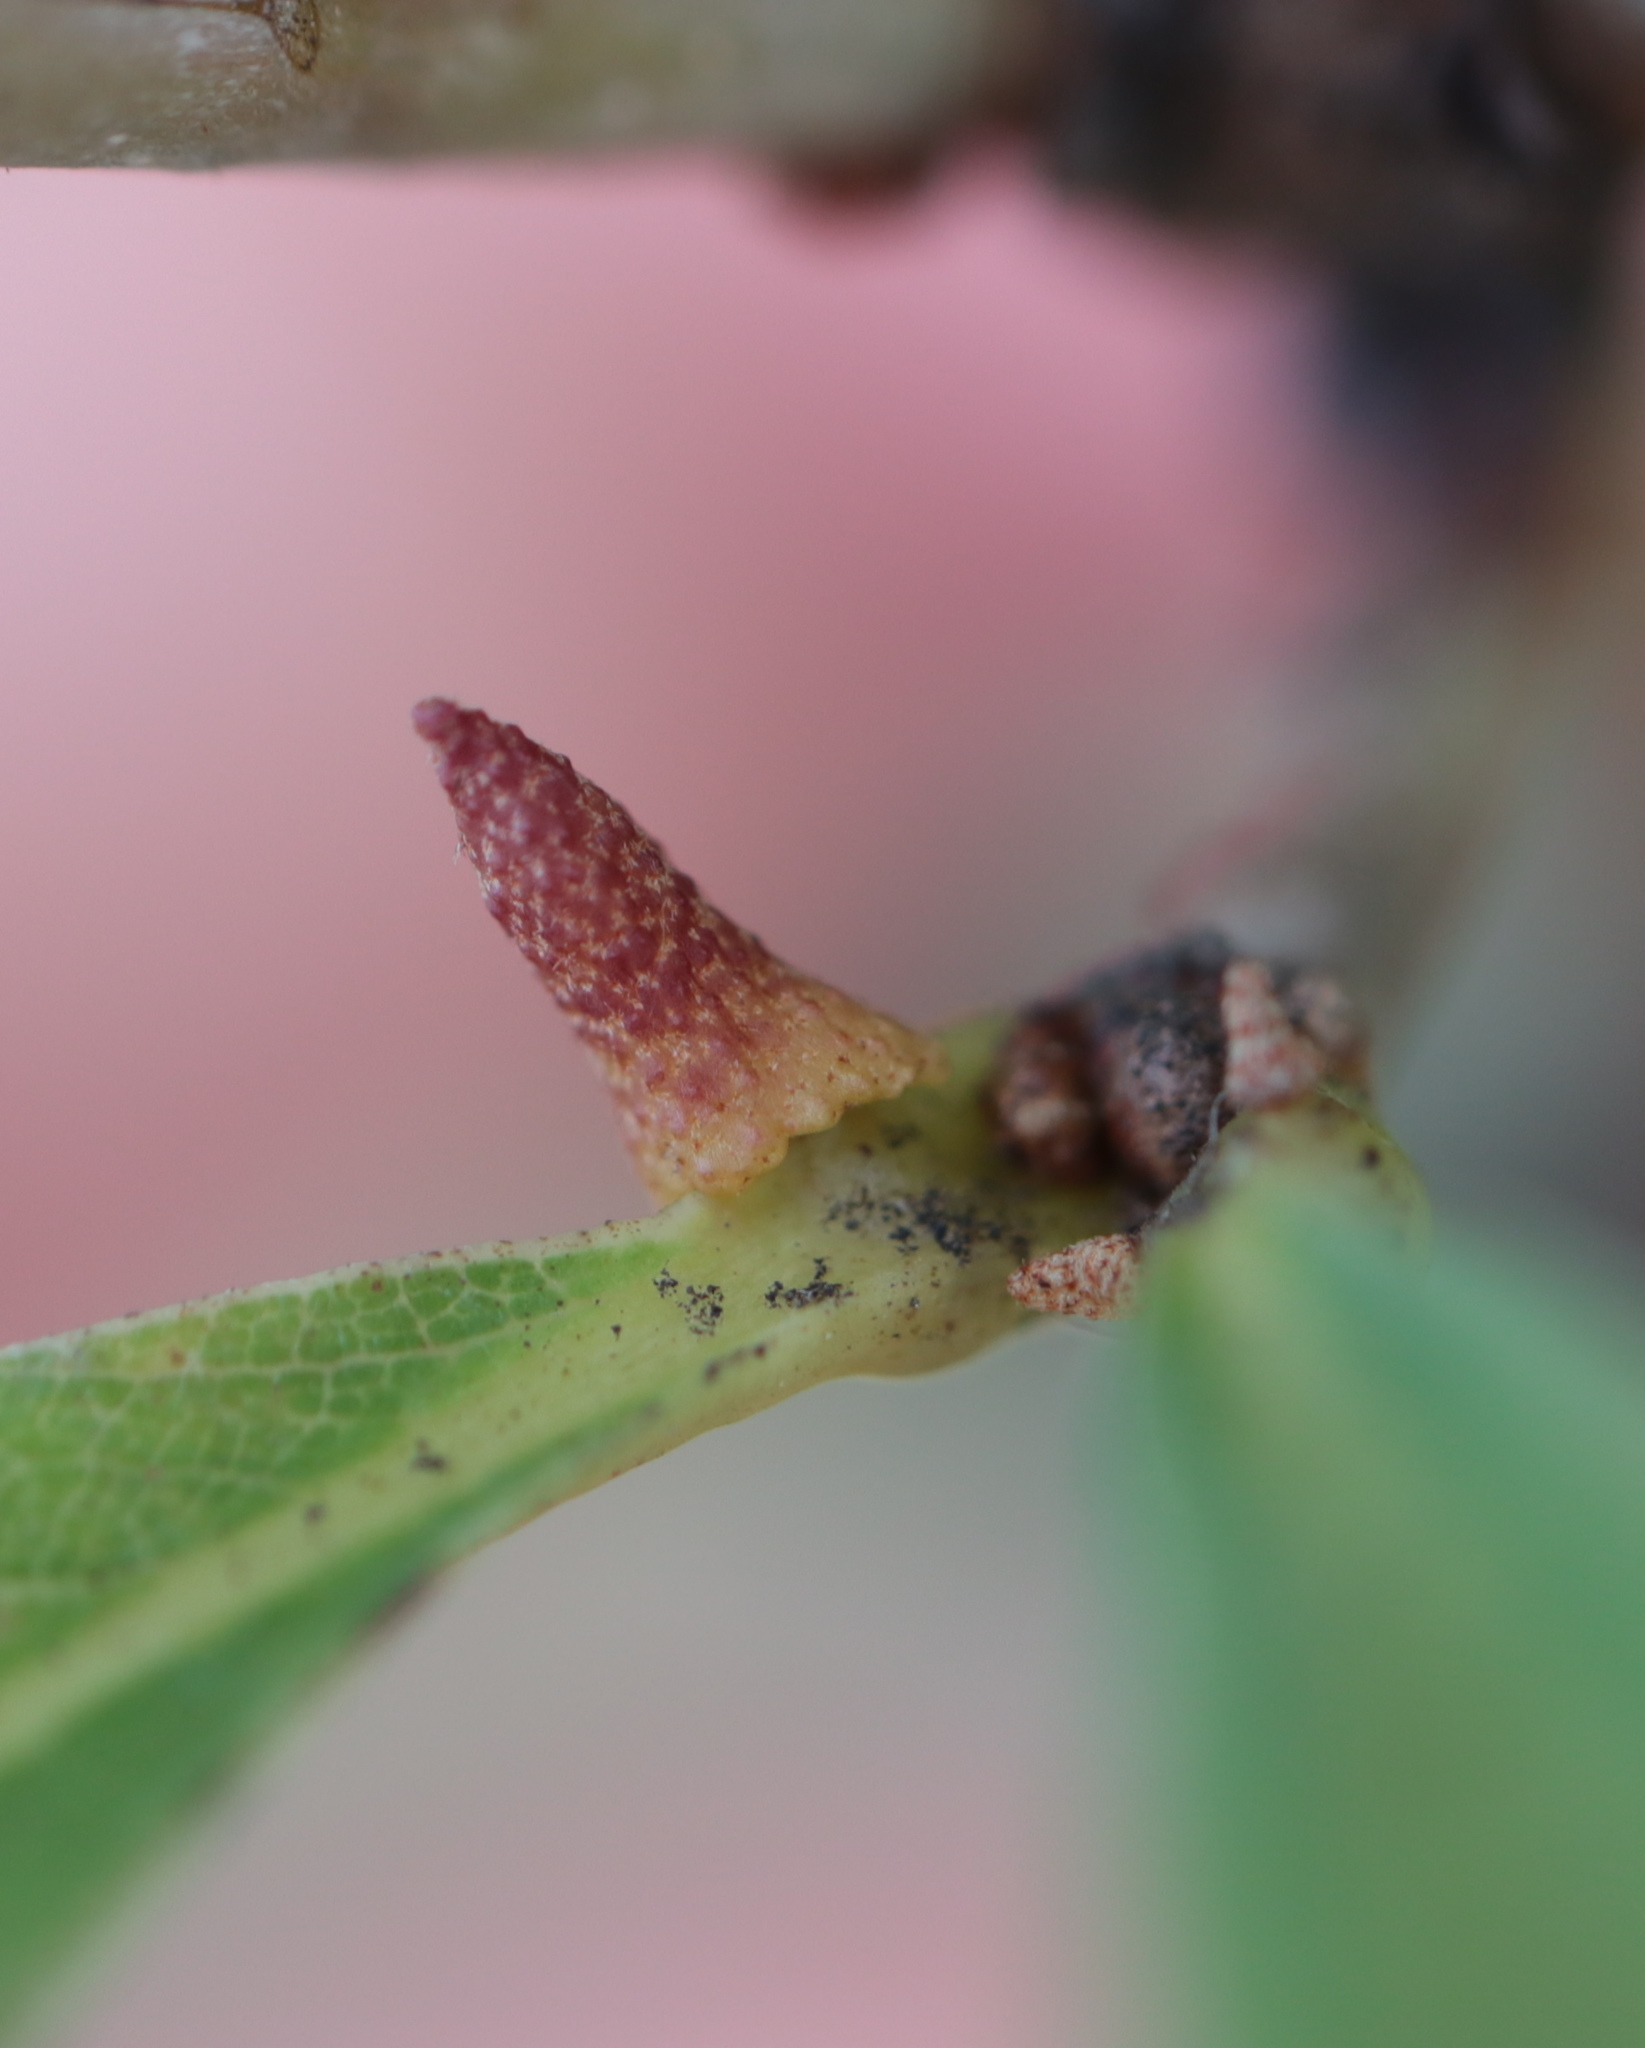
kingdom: Animalia
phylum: Arthropoda
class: Insecta
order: Hymenoptera
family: Cynipidae
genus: Zopheroteras
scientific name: Zopheroteras
